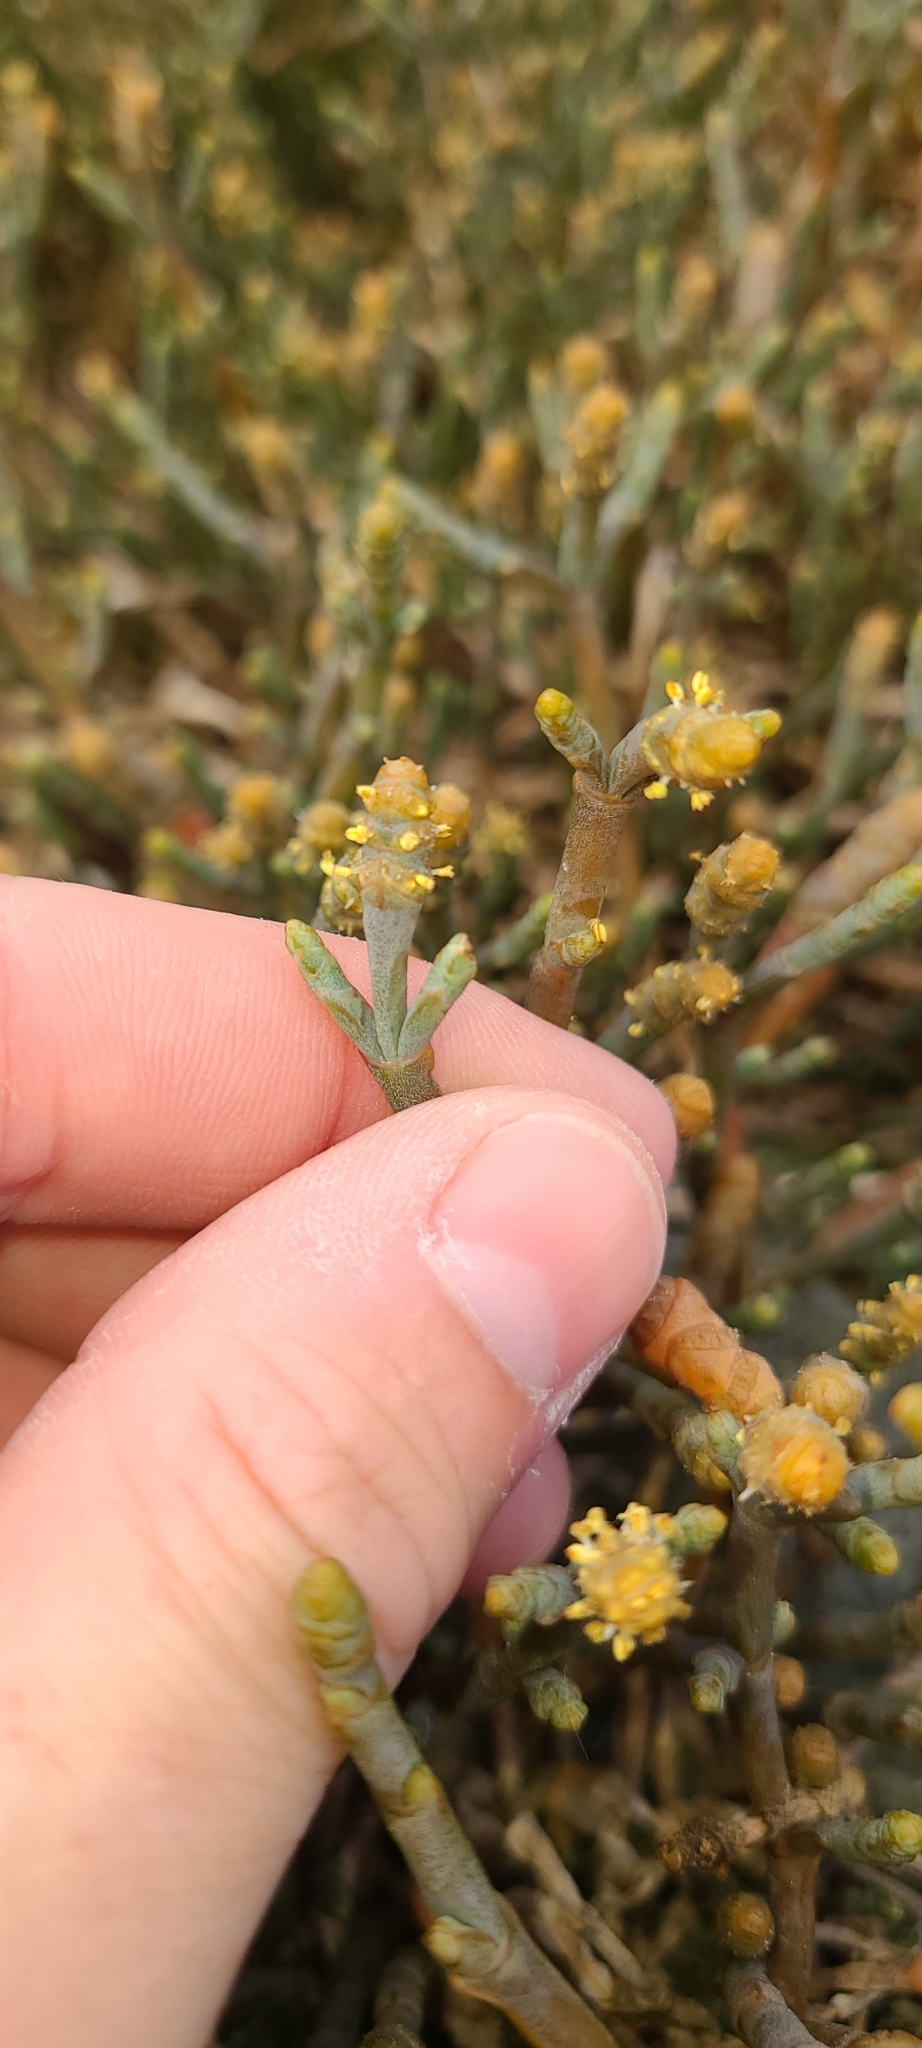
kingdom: Plantae
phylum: Tracheophyta
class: Magnoliopsida
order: Caryophyllales
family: Amaranthaceae
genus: Salicornia
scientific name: Salicornia quinqueflora
